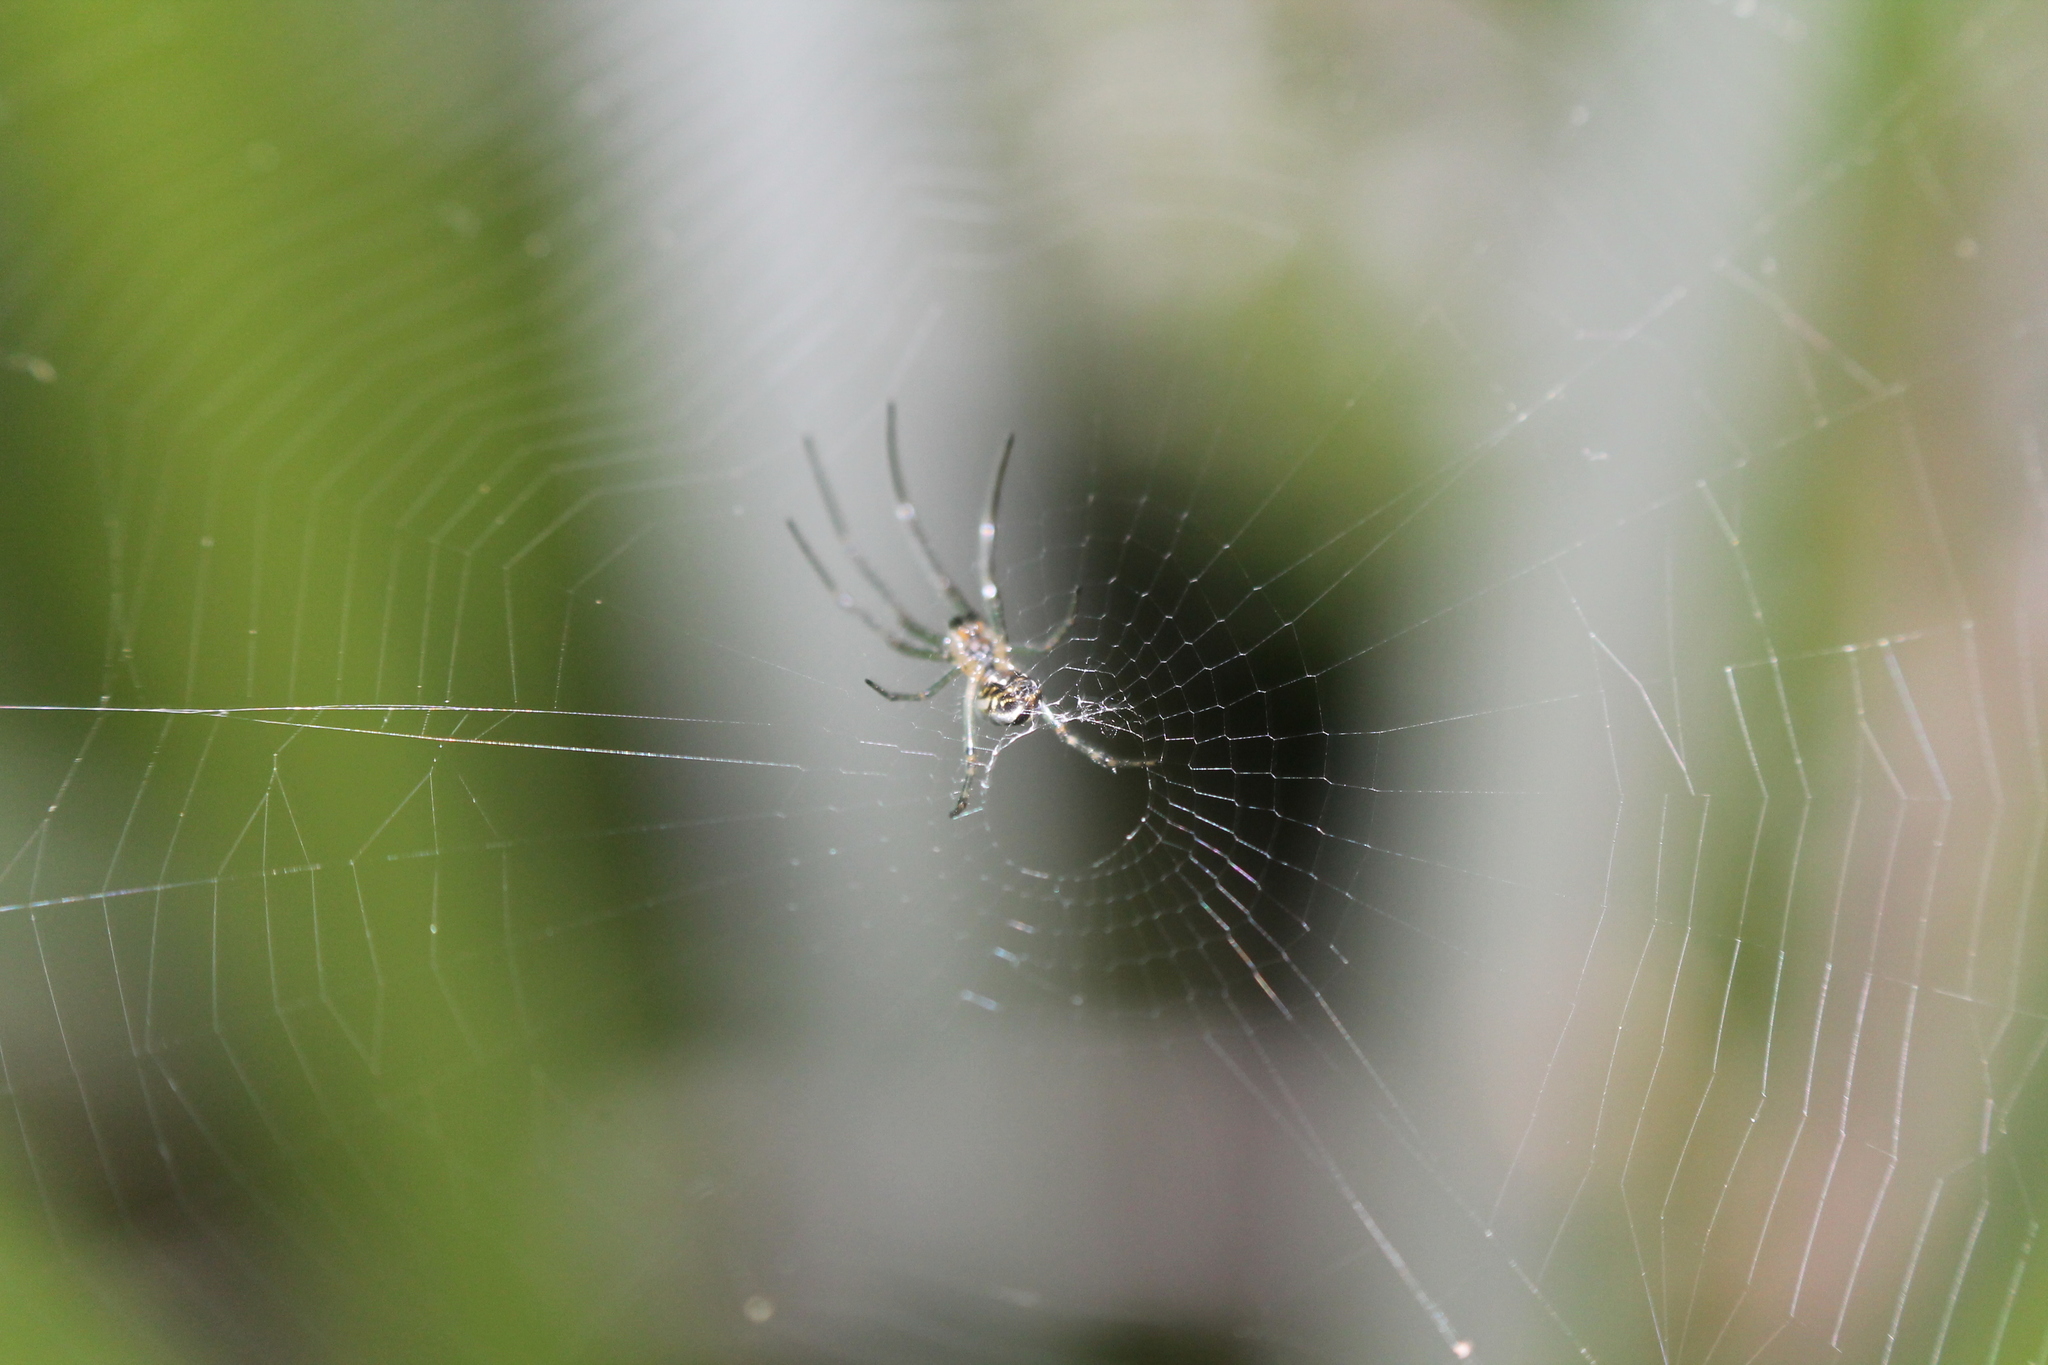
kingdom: Animalia
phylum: Arthropoda
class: Arachnida
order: Araneae
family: Tetragnathidae
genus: Leucauge
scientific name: Leucauge dromedaria
